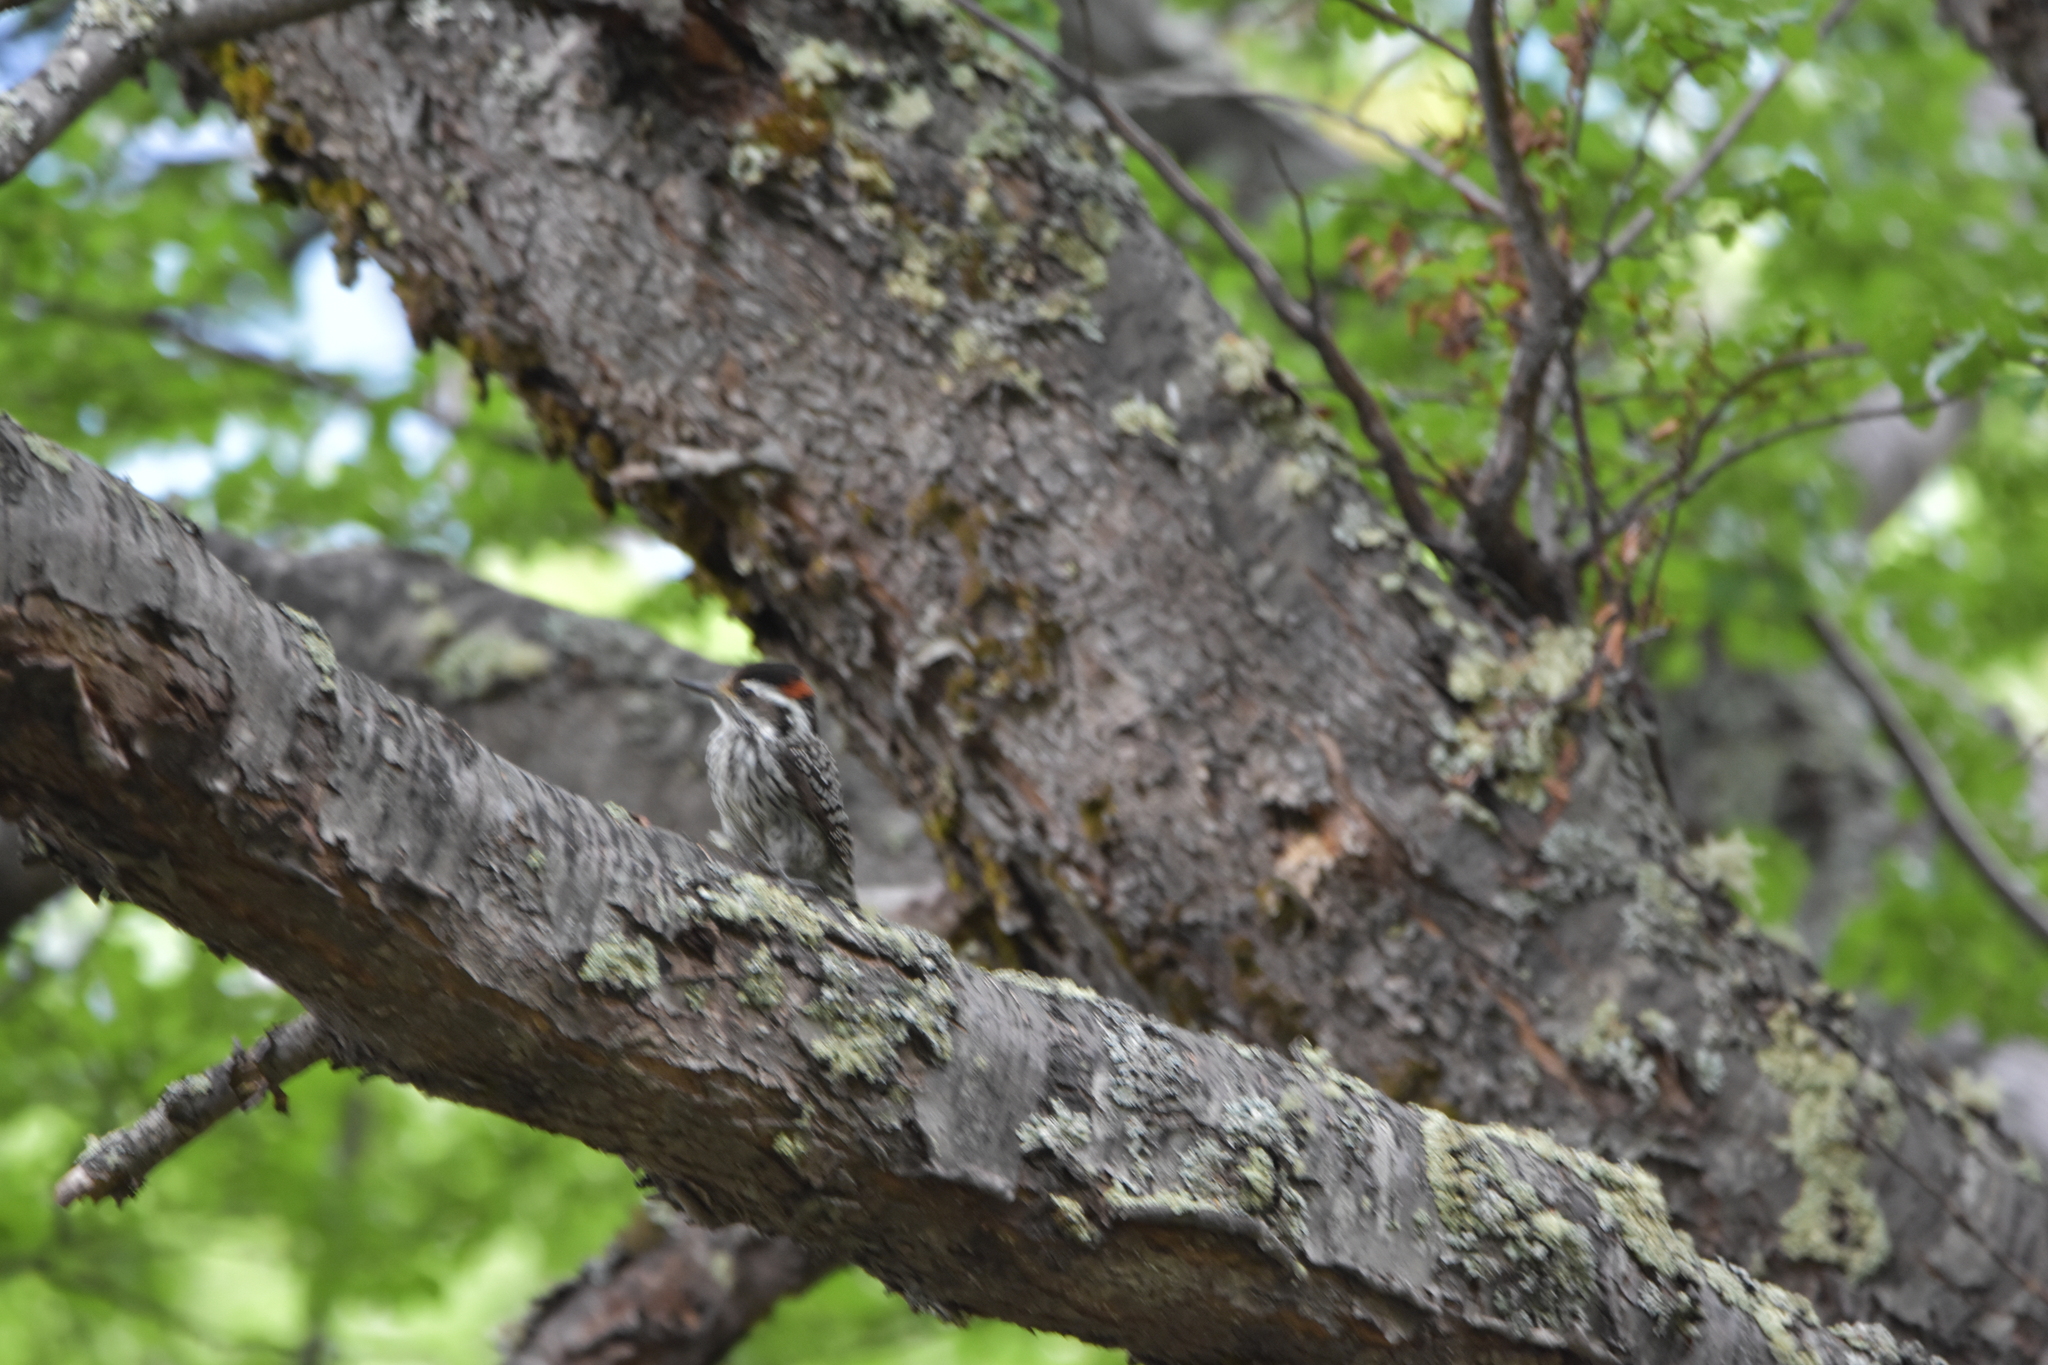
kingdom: Animalia
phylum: Chordata
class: Aves
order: Piciformes
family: Picidae
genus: Veniliornis
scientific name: Veniliornis lignarius
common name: Striped woodpecker
